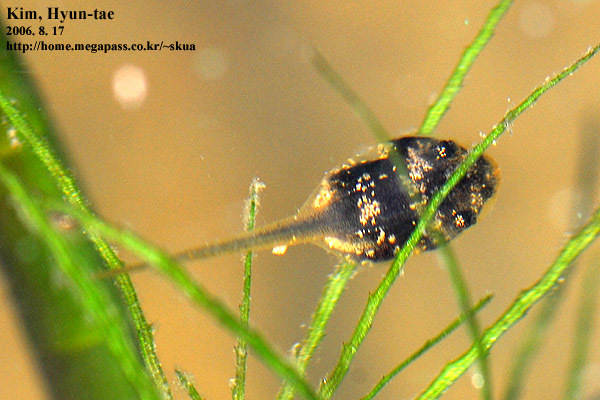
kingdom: Animalia
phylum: Chordata
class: Amphibia
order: Anura
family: Ranidae
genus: Lithobates
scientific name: Lithobates catesbeianus
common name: American bullfrog
